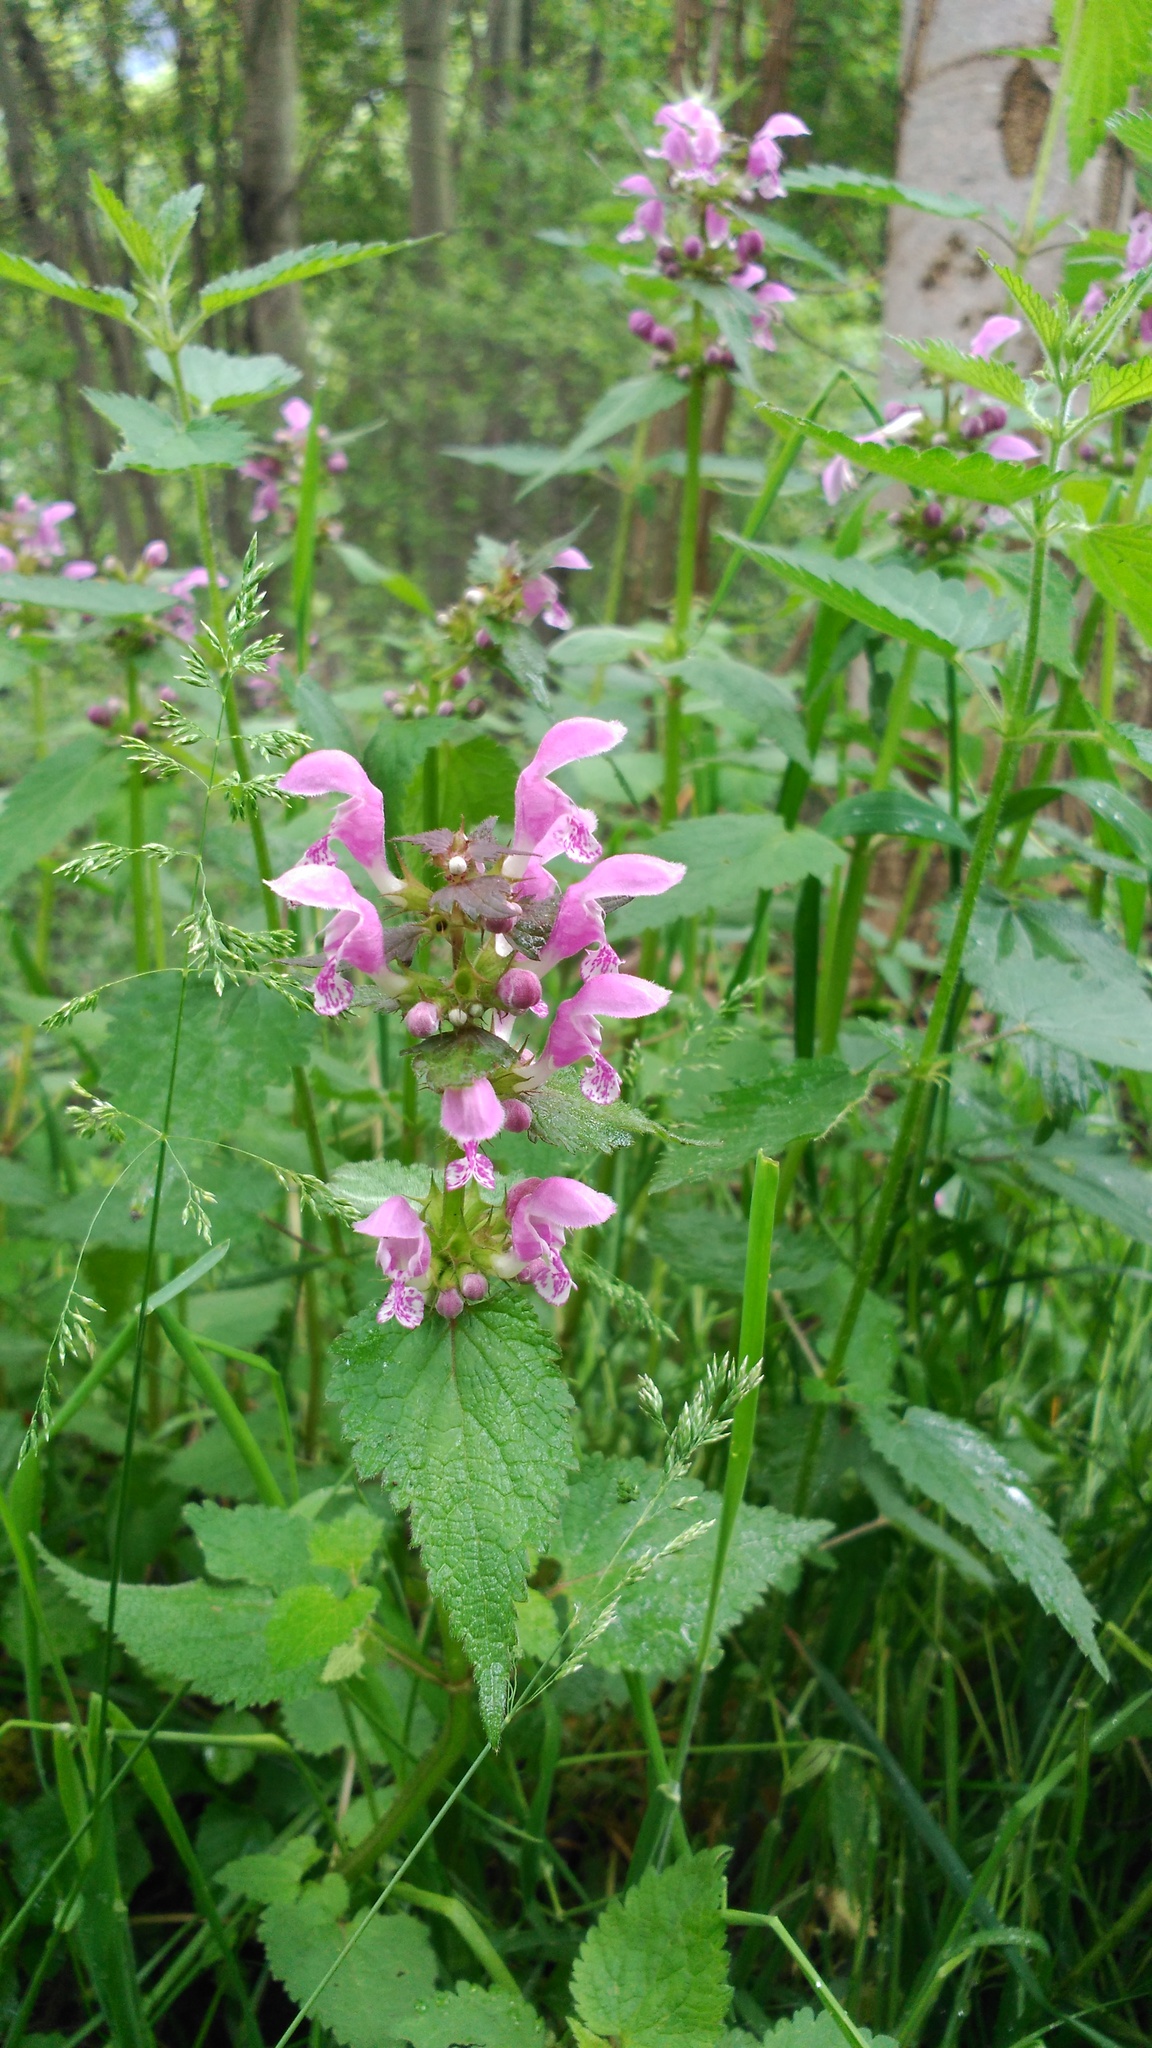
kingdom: Plantae
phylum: Tracheophyta
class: Magnoliopsida
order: Lamiales
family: Lamiaceae
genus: Lamium
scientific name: Lamium maculatum
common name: Spotted dead-nettle
